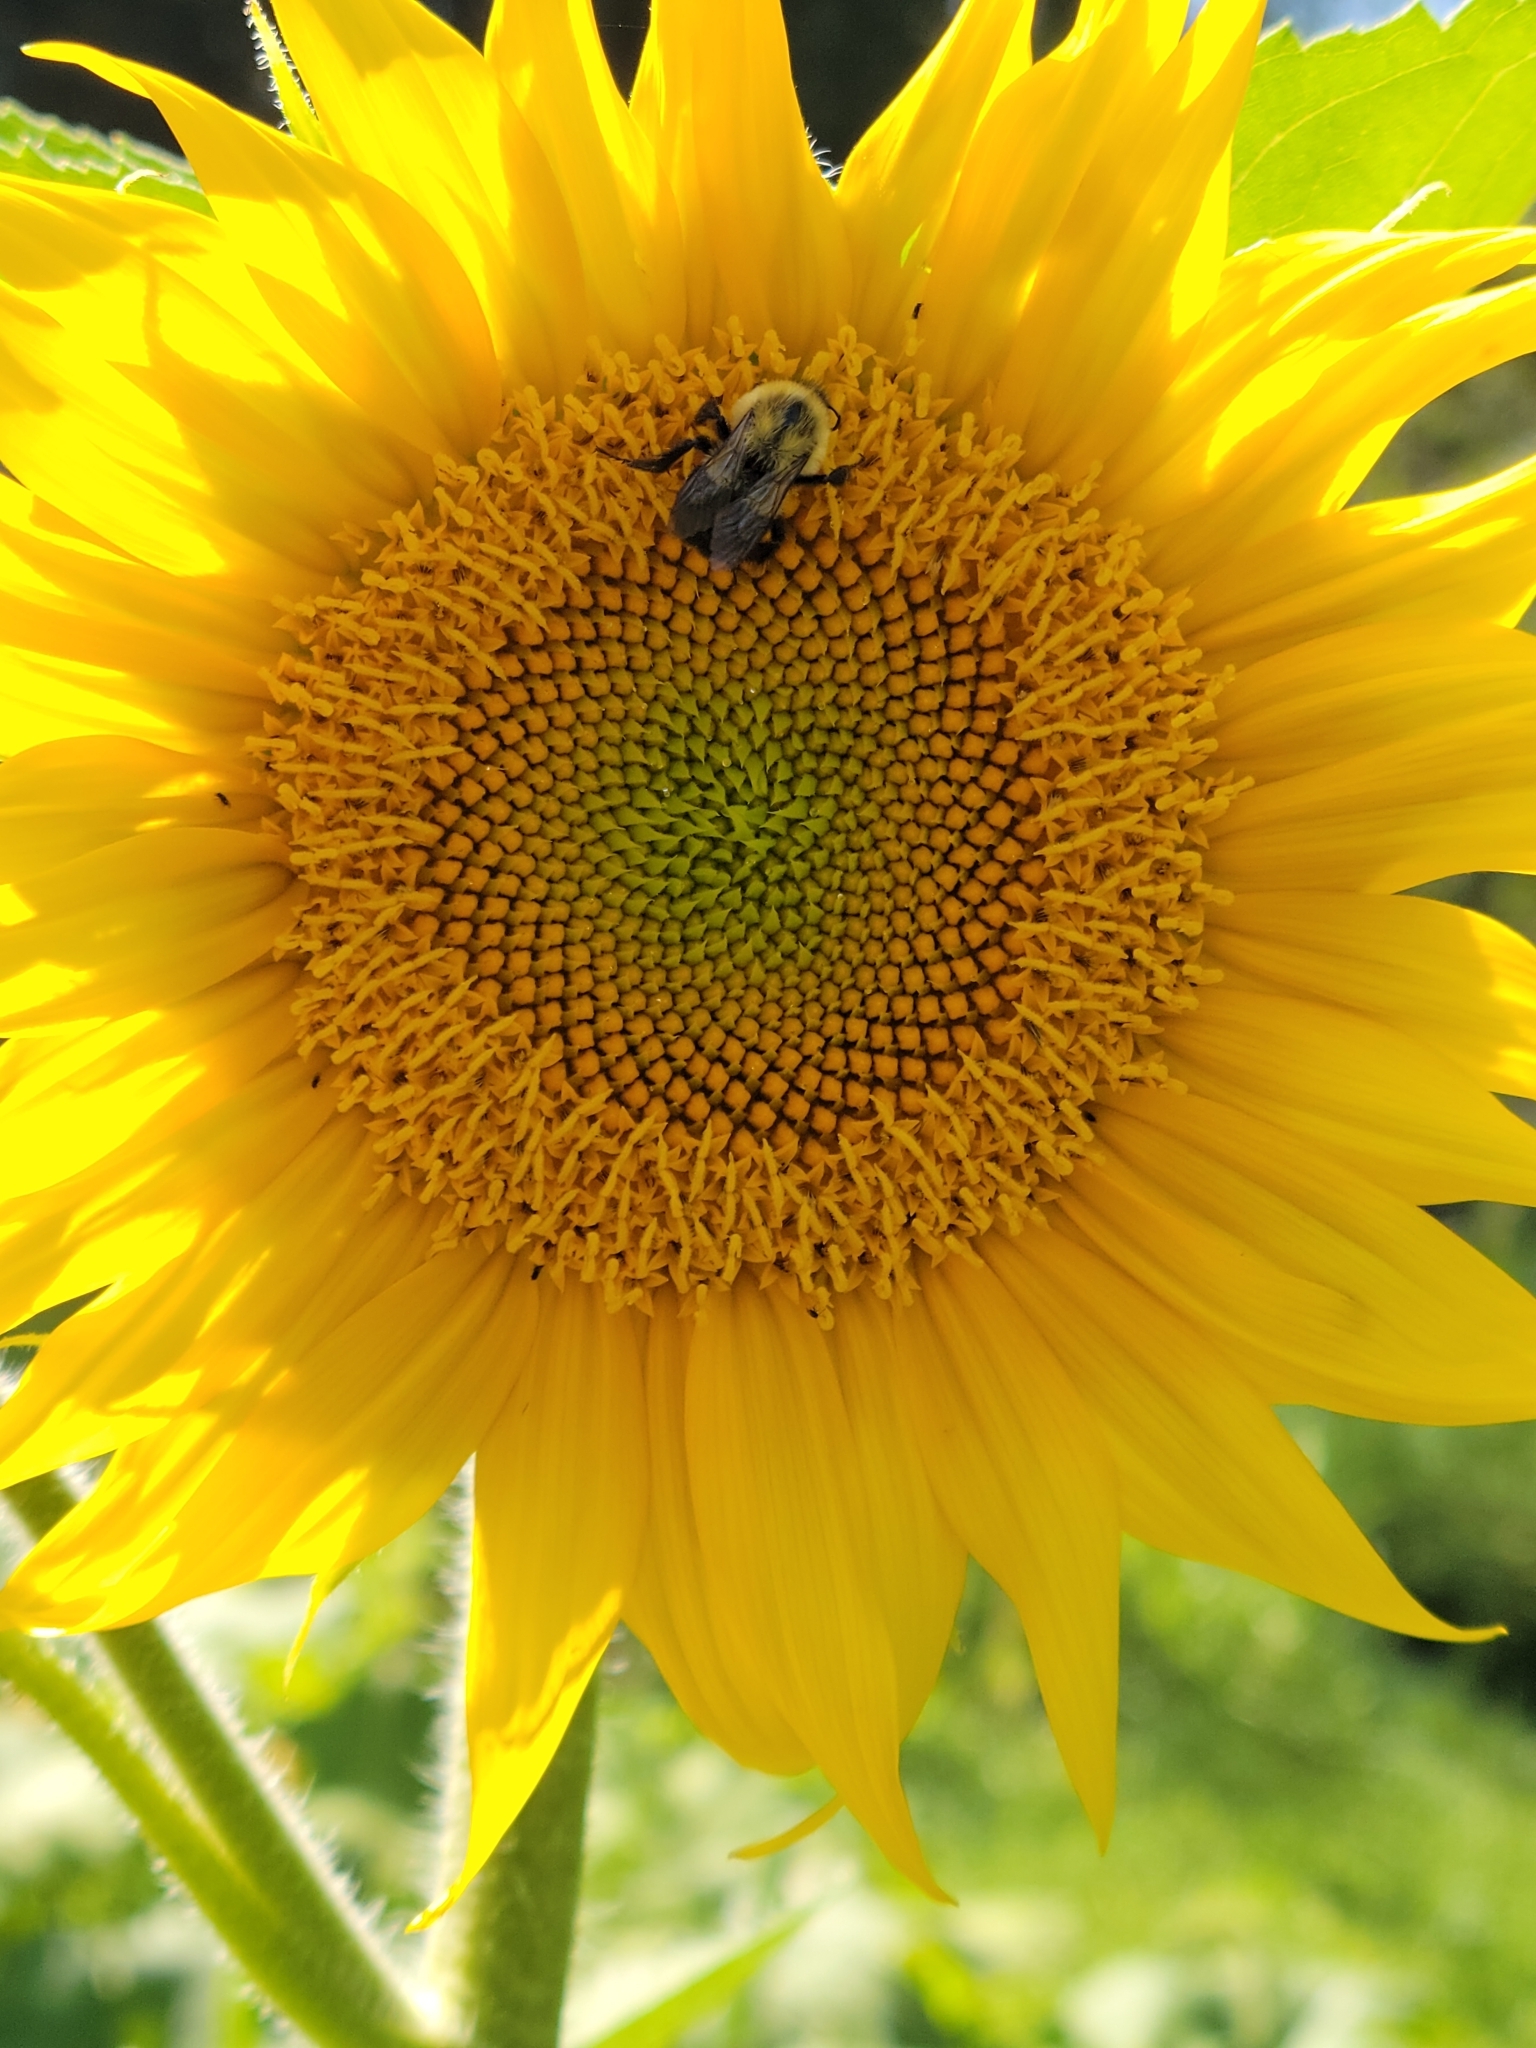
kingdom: Animalia
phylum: Arthropoda
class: Insecta
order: Hymenoptera
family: Apidae
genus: Bombus
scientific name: Bombus impatiens
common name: Common eastern bumble bee
